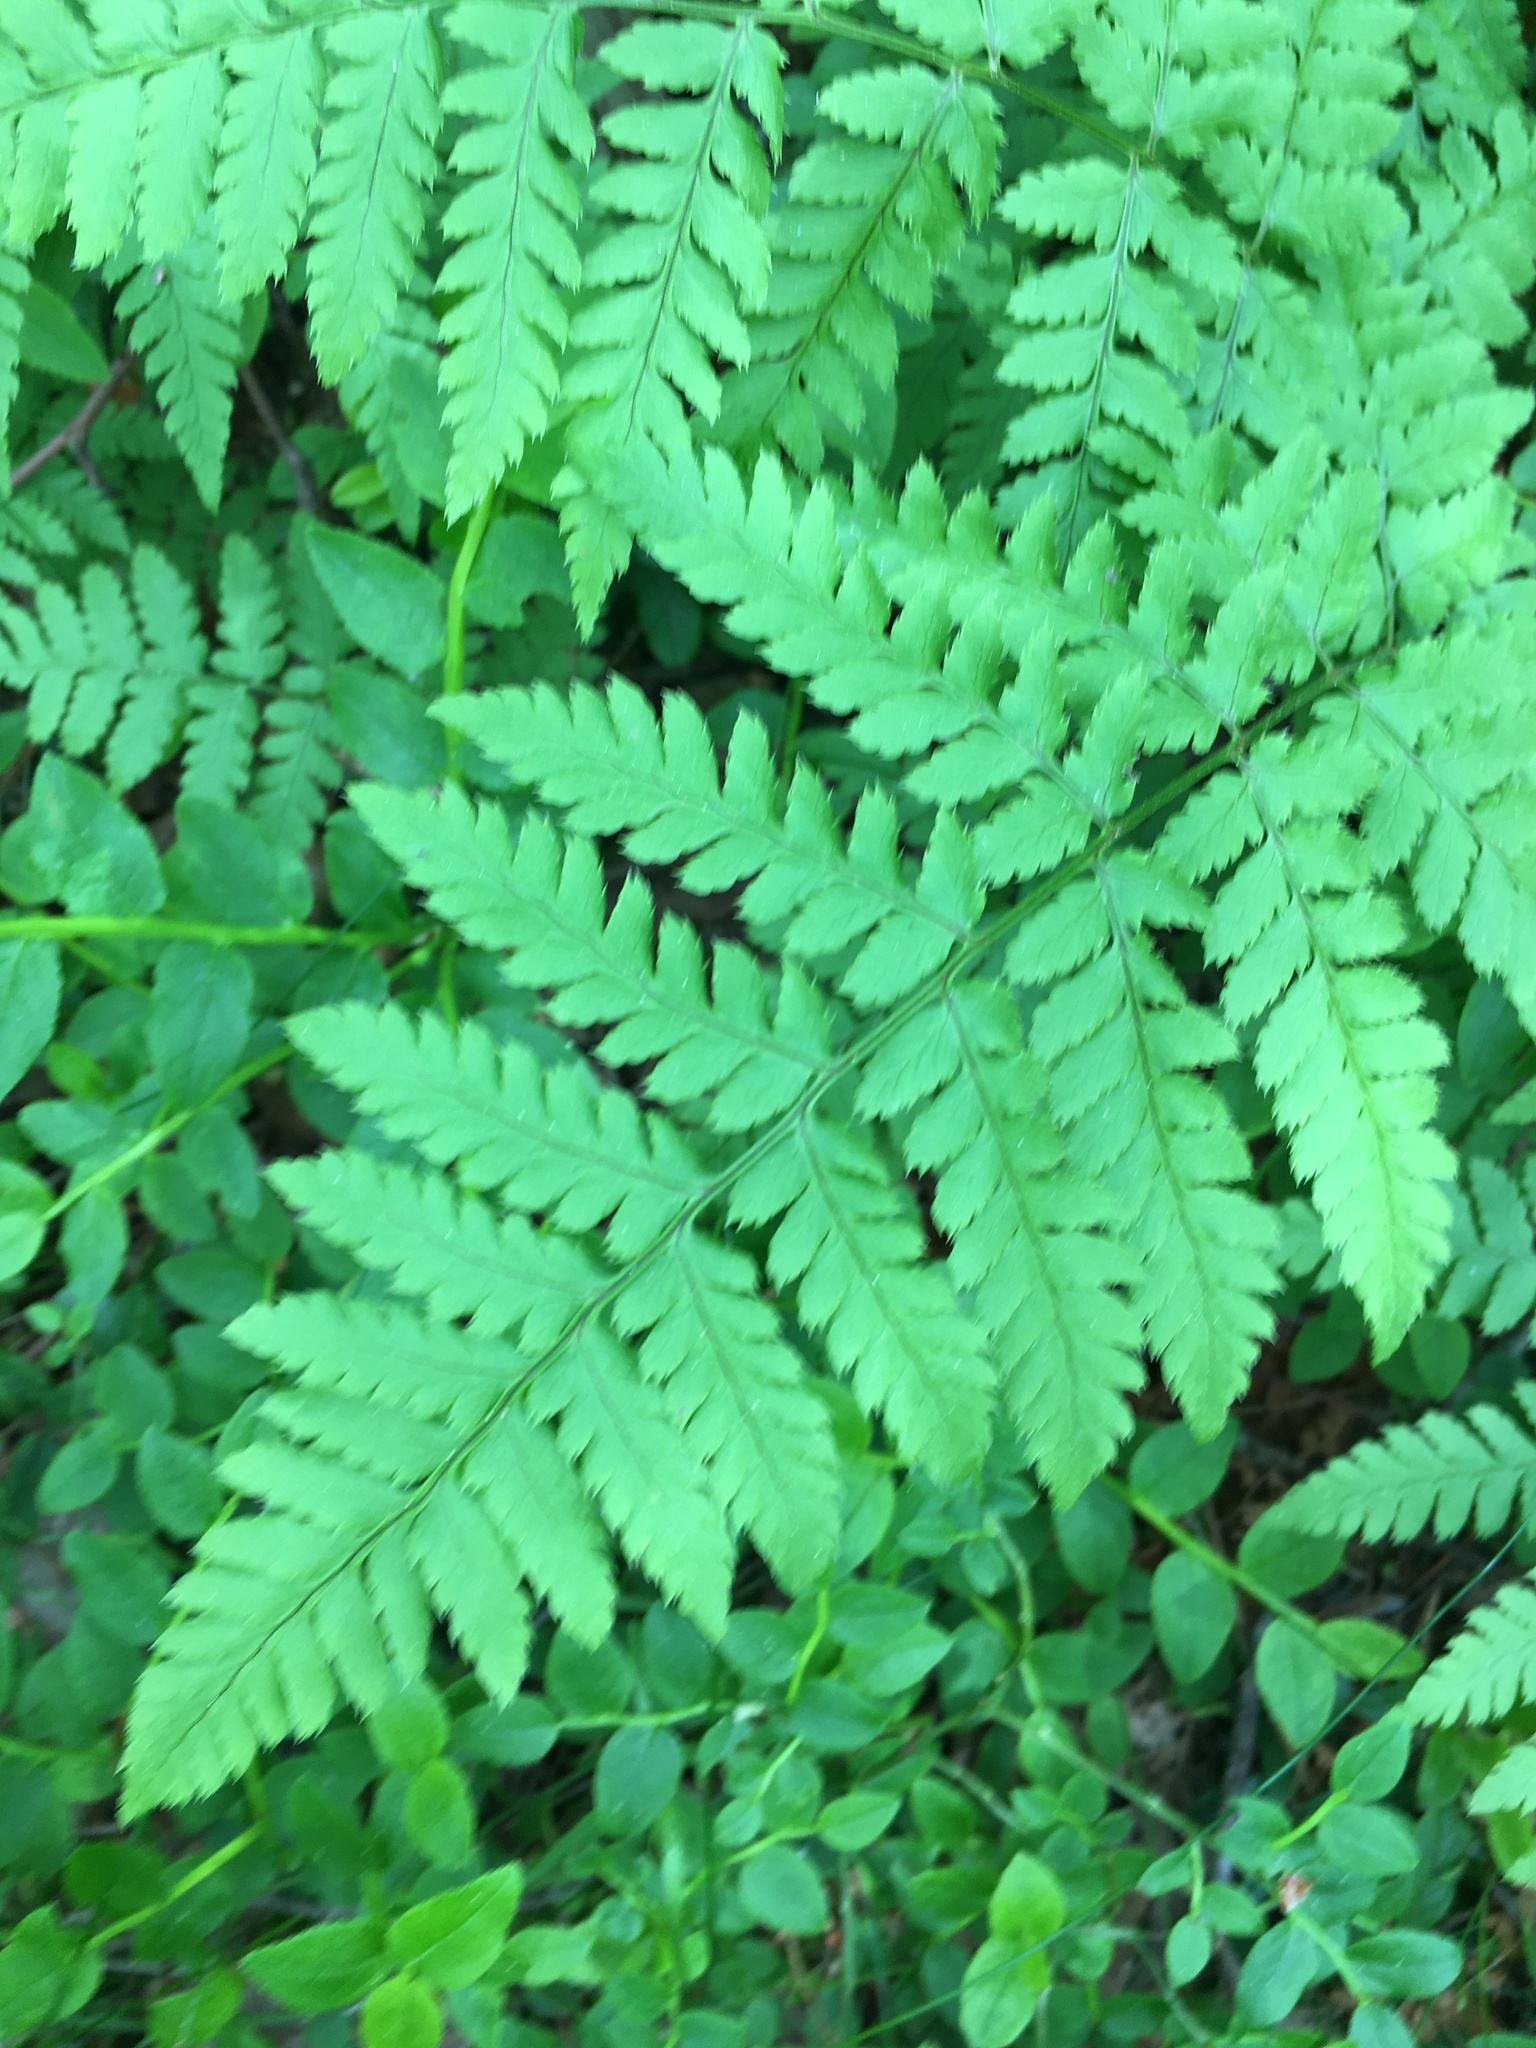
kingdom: Plantae
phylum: Tracheophyta
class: Polypodiopsida
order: Polypodiales
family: Dryopteridaceae
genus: Dryopteris
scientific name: Dryopteris carthusiana
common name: Narrow buckler-fern
